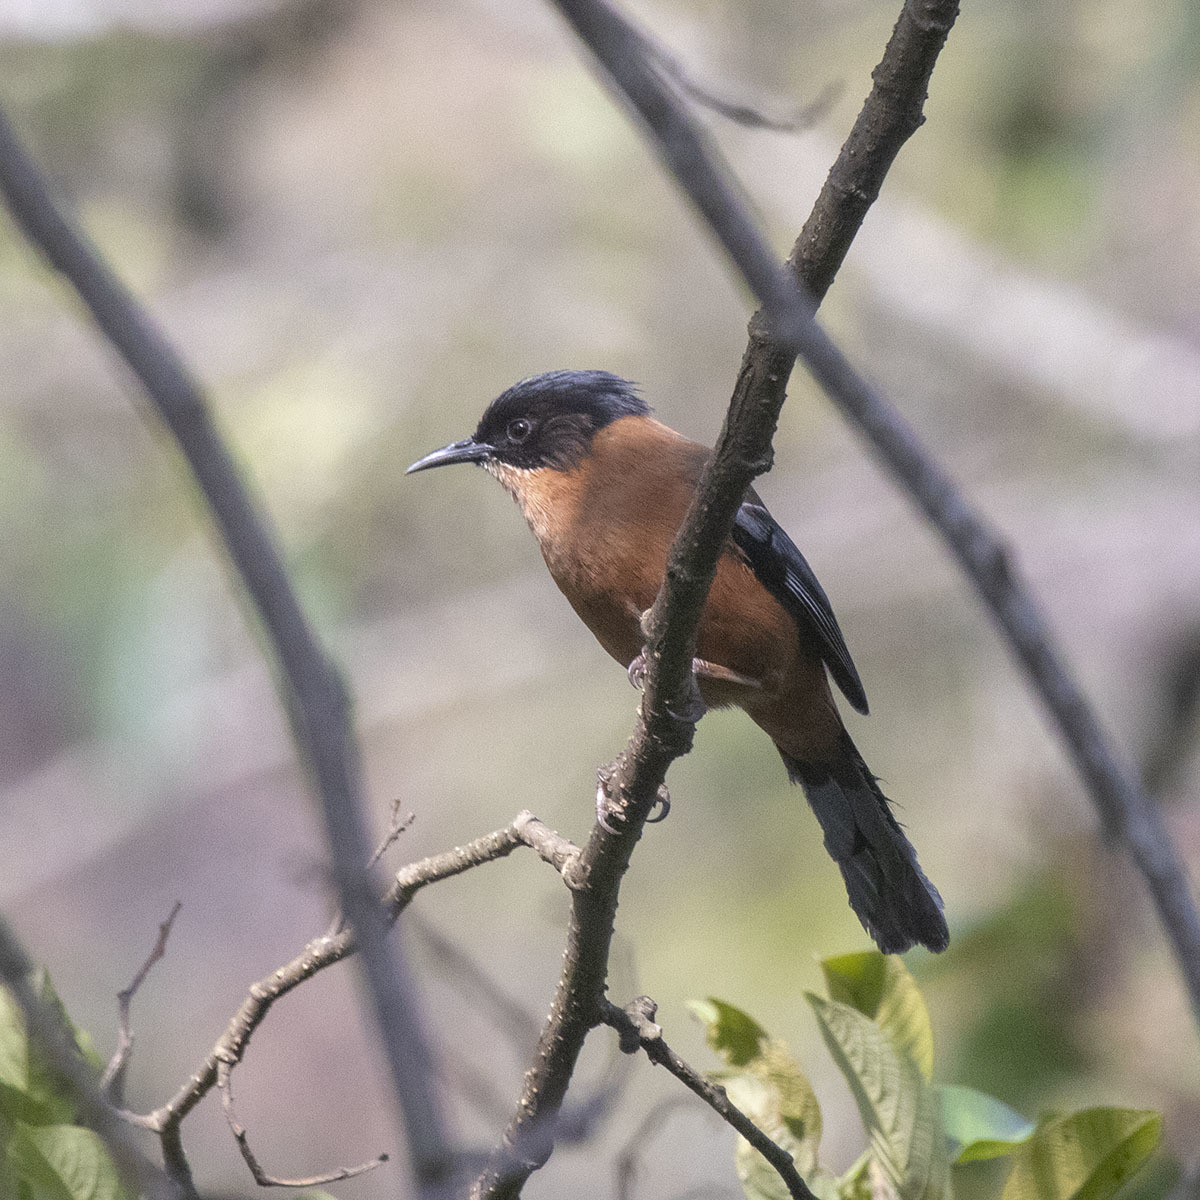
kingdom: Animalia
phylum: Chordata
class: Aves
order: Passeriformes
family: Leiothrichidae
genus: Heterophasia
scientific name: Heterophasia capistrata
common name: Rufous sibia
